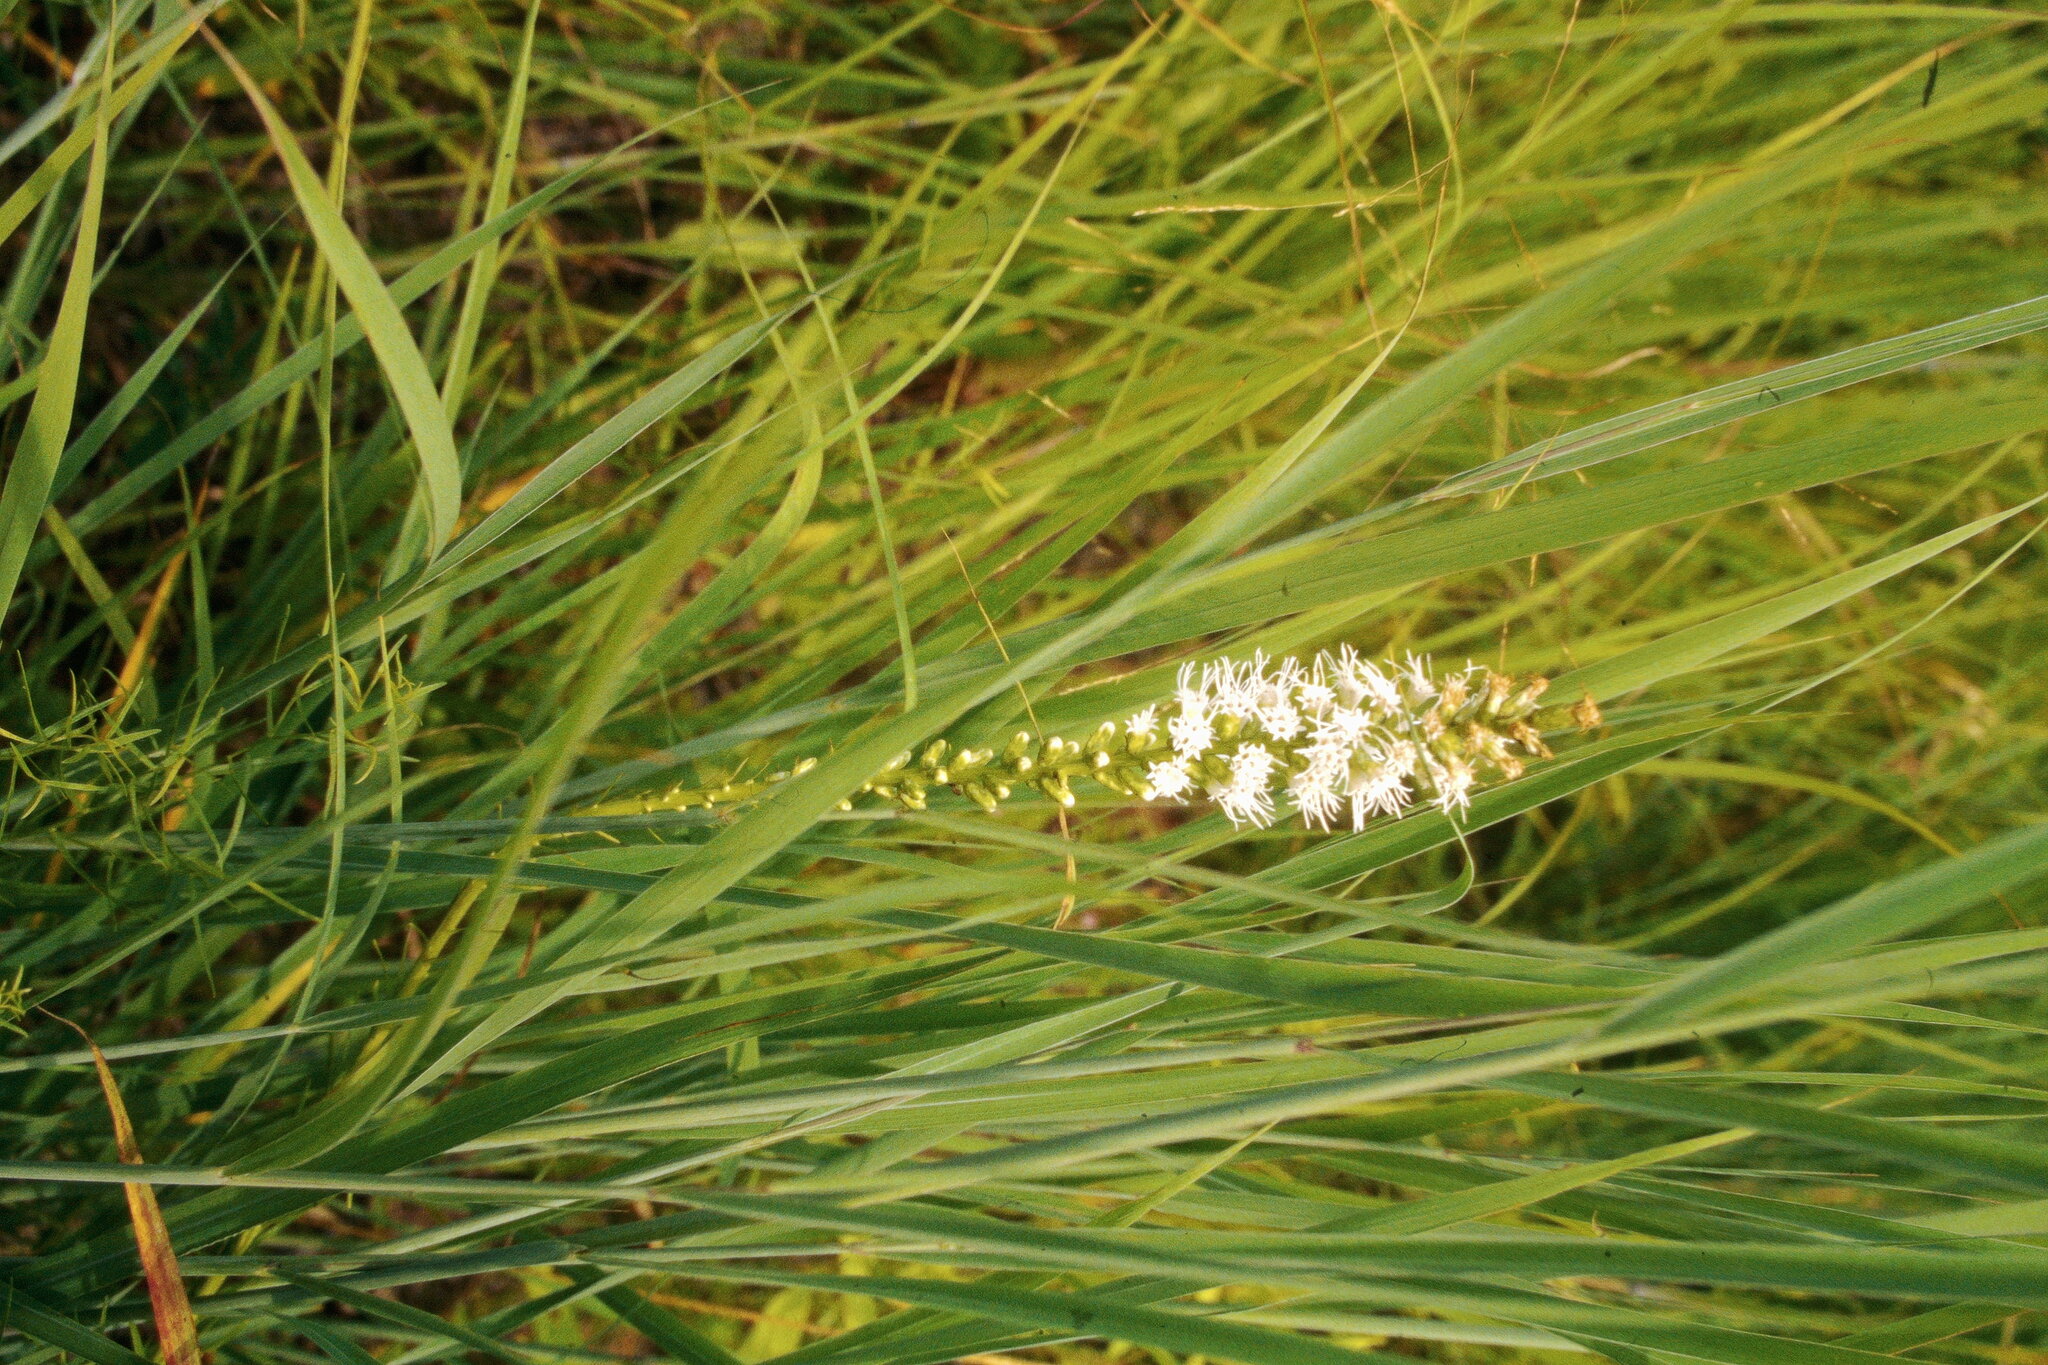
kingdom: Plantae
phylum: Tracheophyta
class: Magnoliopsida
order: Asterales
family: Asteraceae
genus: Liatris
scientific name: Liatris spicata
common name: Florist gayfeather
